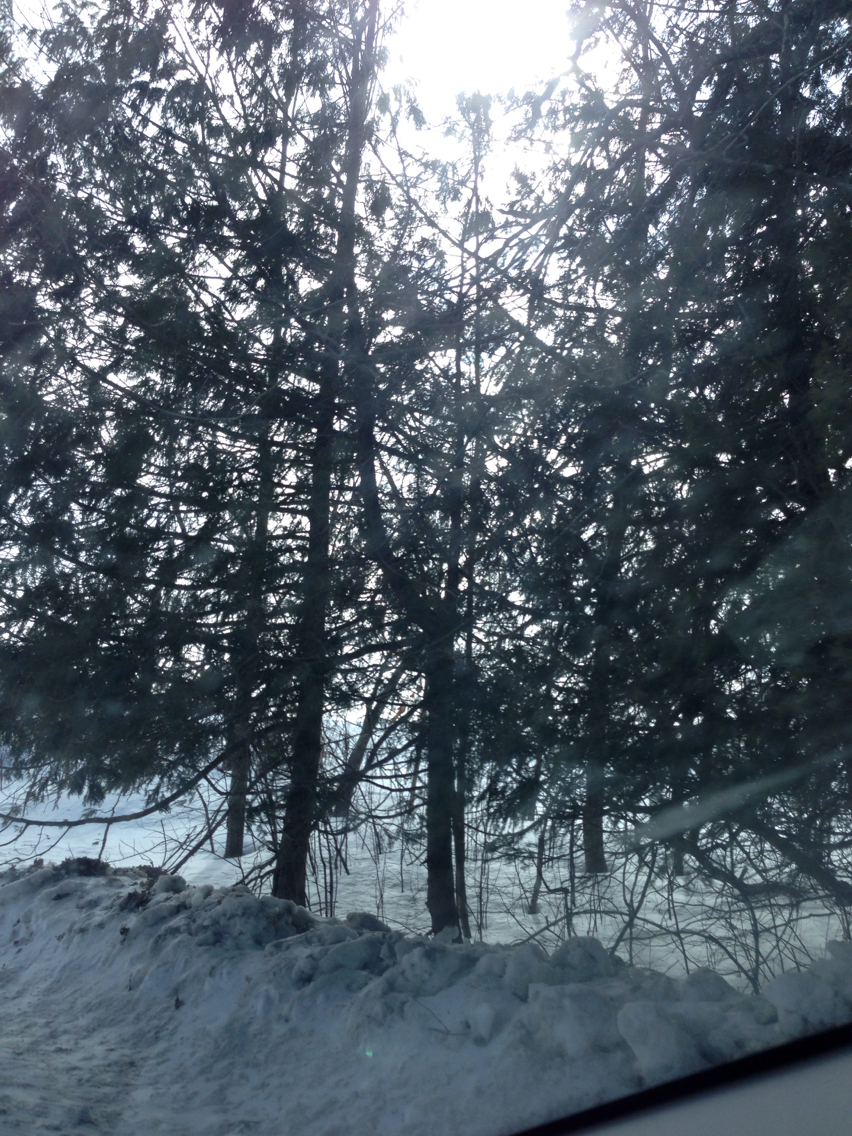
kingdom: Plantae
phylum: Tracheophyta
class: Pinopsida
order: Pinales
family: Cupressaceae
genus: Thuja
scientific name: Thuja occidentalis
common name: Northern white-cedar
